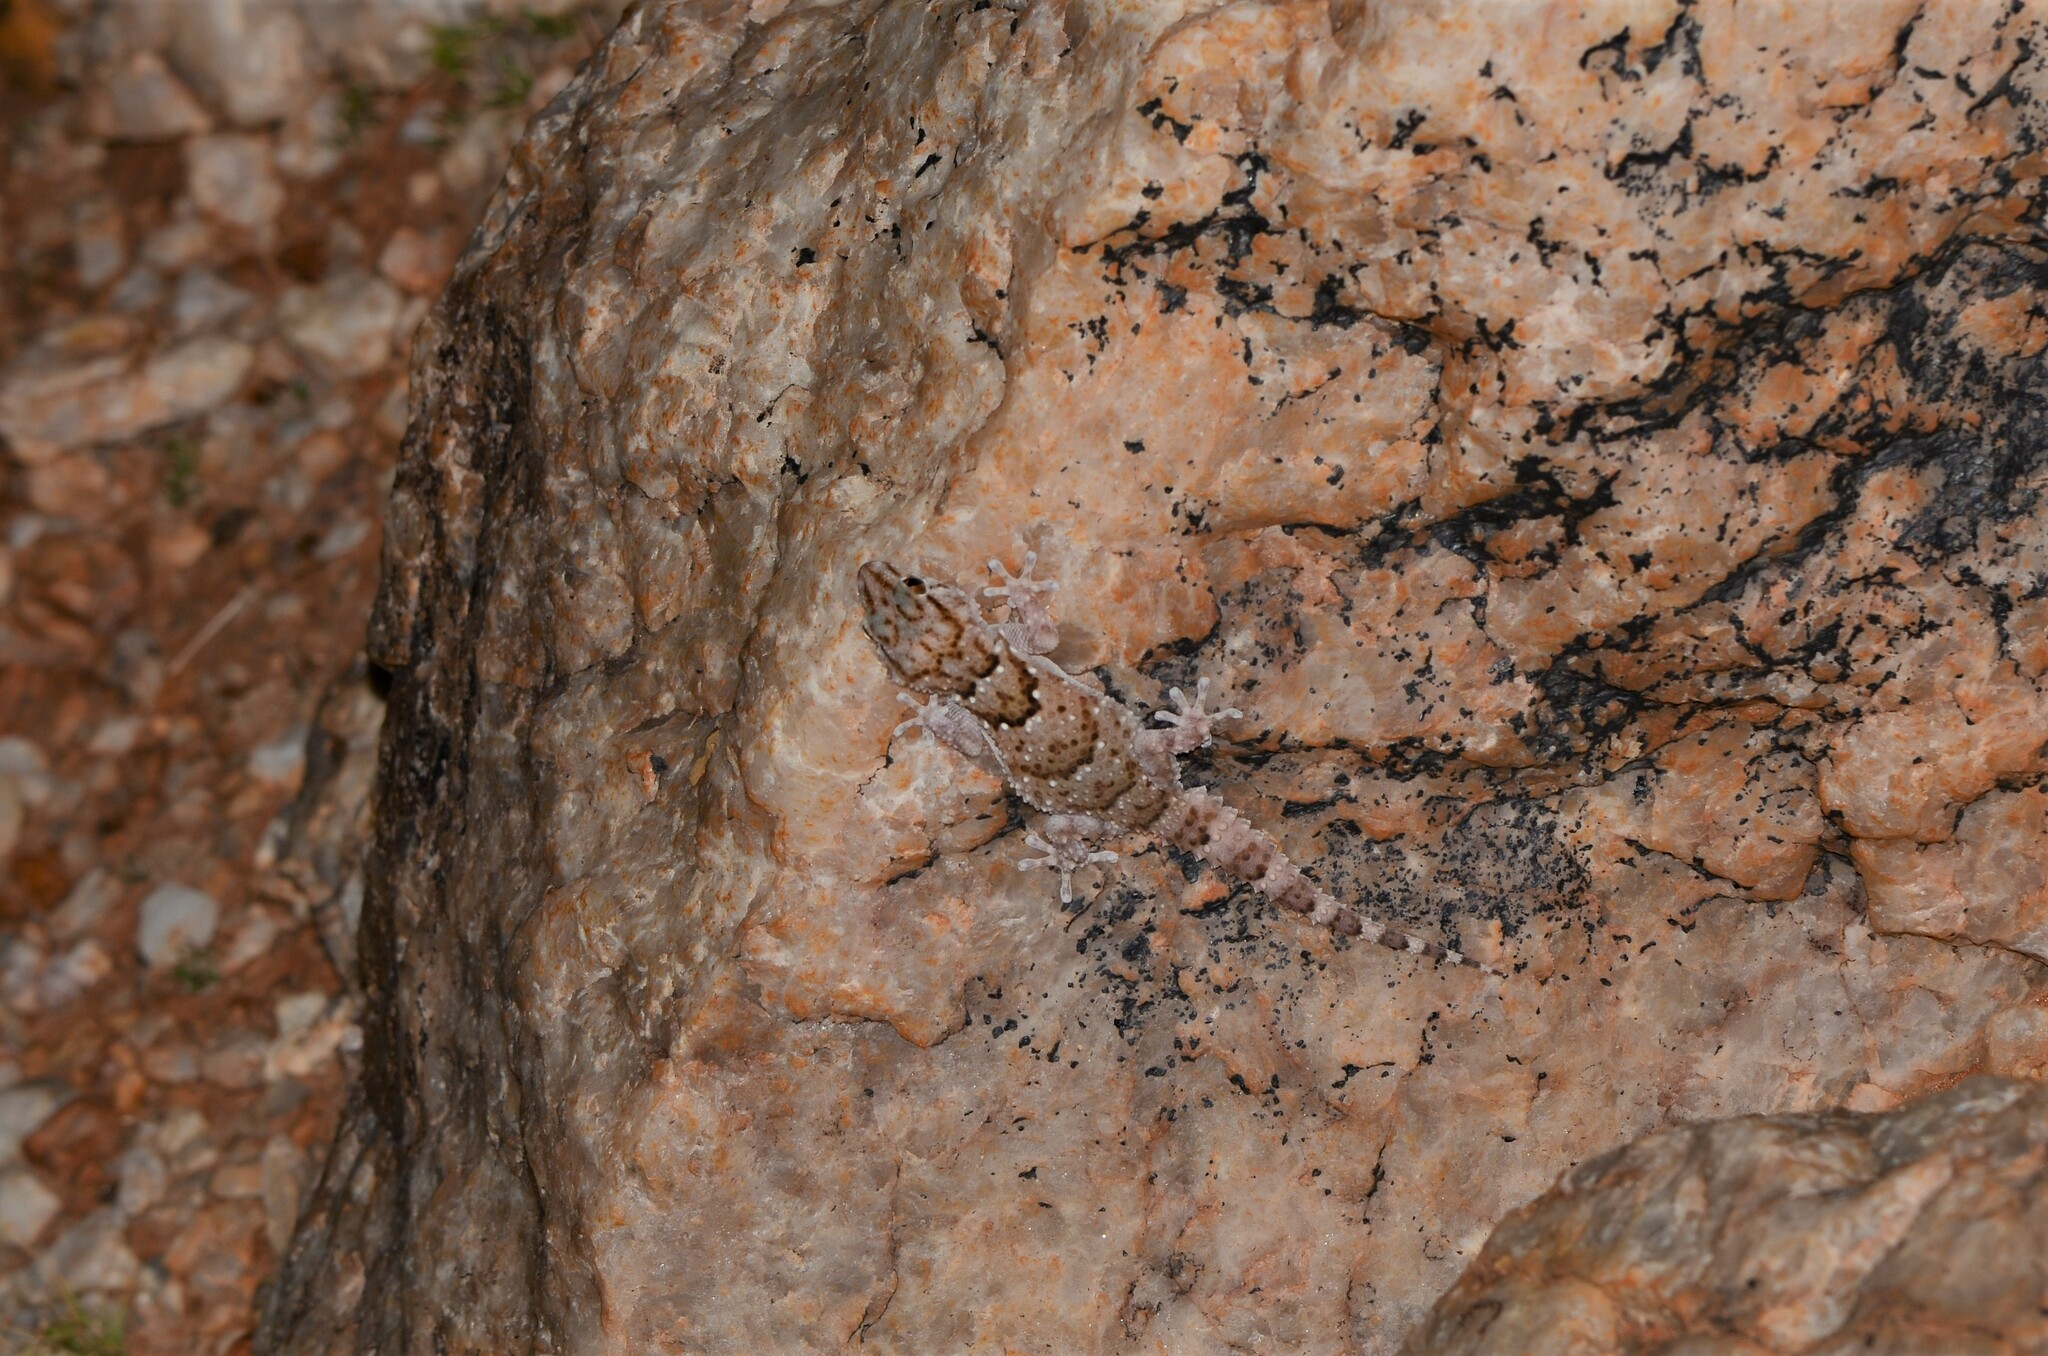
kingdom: Animalia
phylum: Chordata
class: Squamata
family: Gekkonidae
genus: Chondrodactylus
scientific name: Chondrodactylus laevigatus
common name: Fischer's thick-toed gecko
